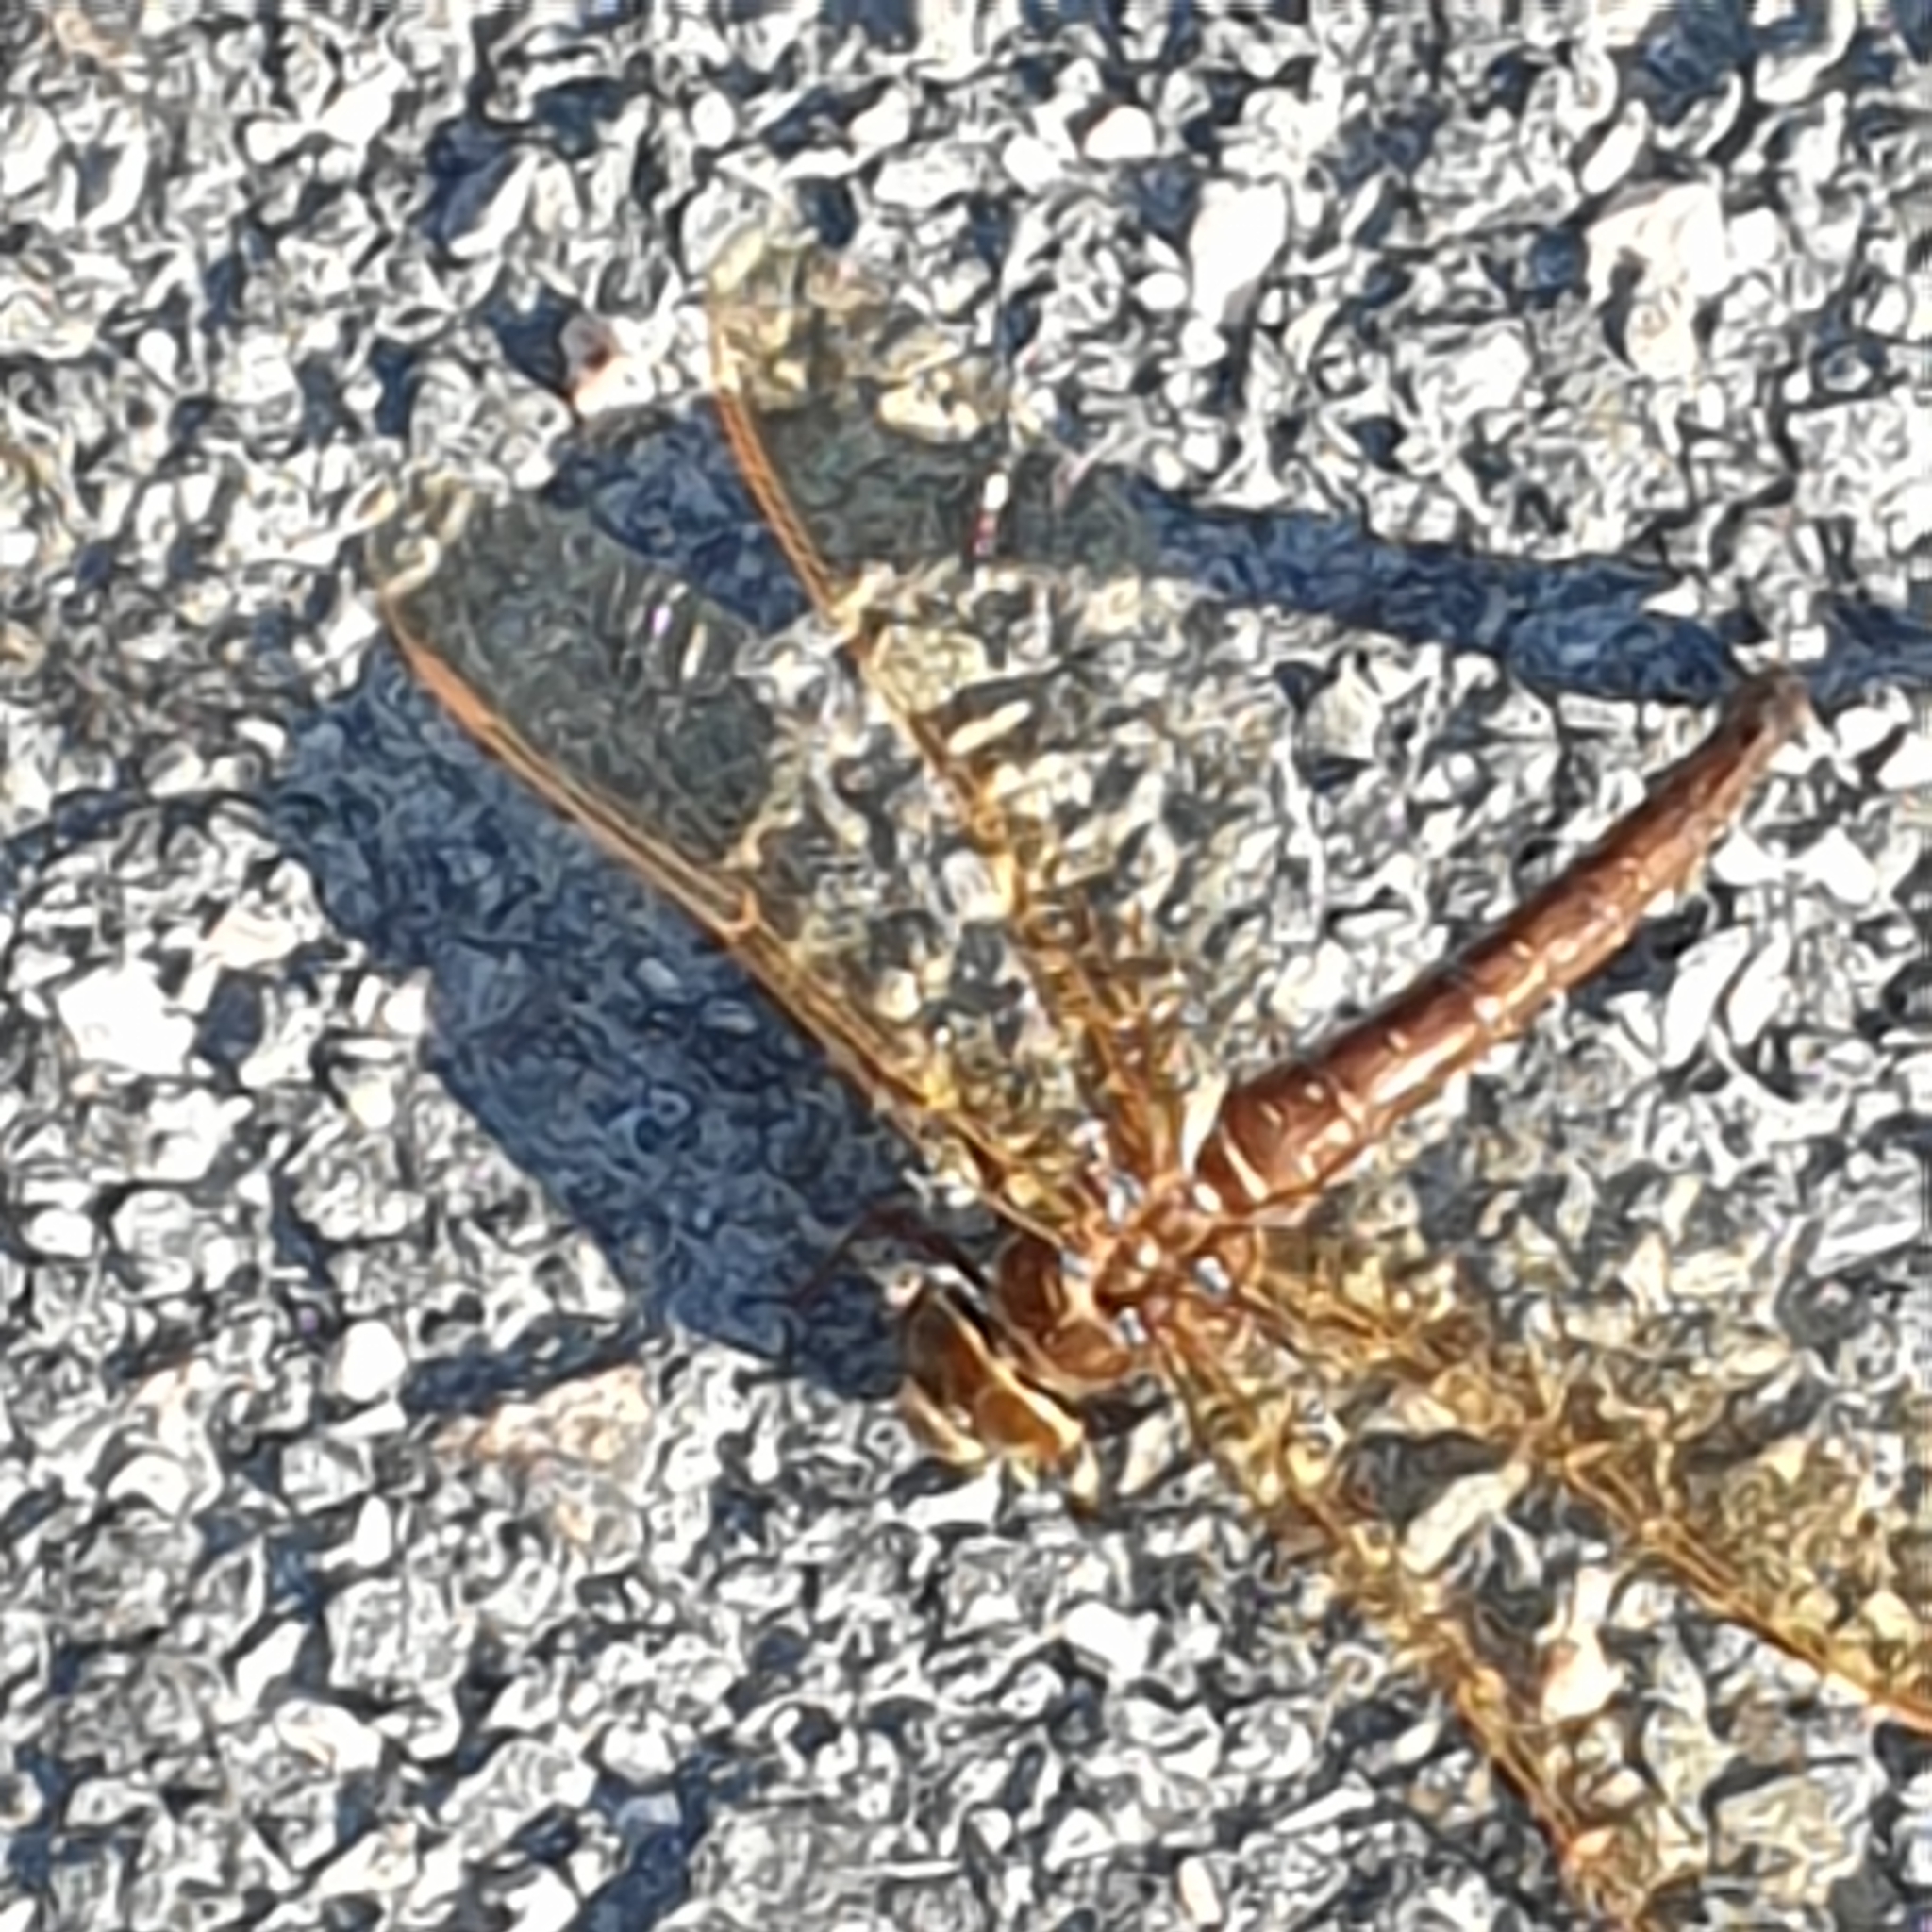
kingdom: Animalia
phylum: Arthropoda
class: Insecta
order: Odonata
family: Aeshnidae
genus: Aeshna
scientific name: Aeshna grandis
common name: Brown hawker
